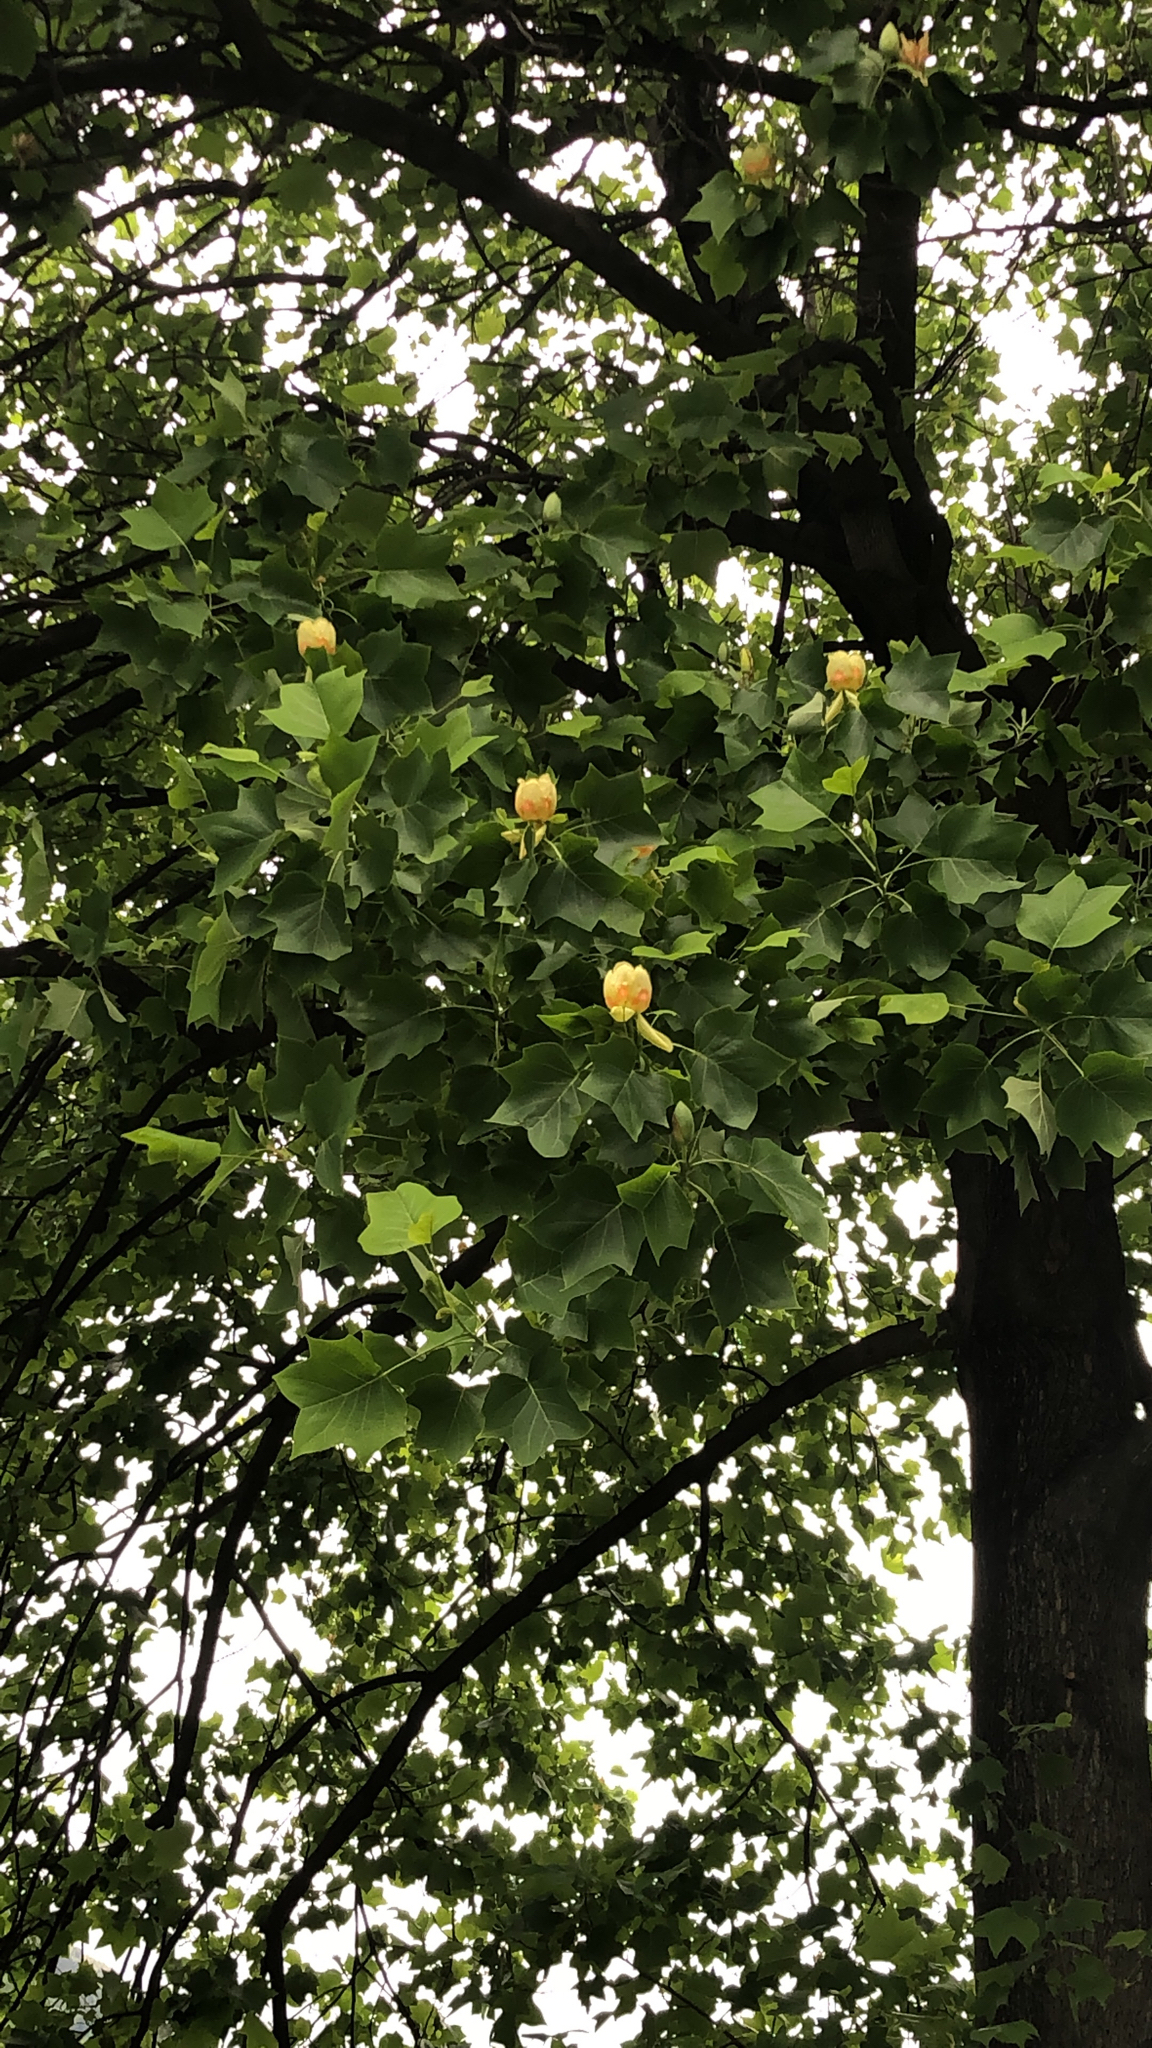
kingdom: Plantae
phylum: Tracheophyta
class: Magnoliopsida
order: Magnoliales
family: Magnoliaceae
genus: Liriodendron
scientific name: Liriodendron tulipifera
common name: Tulip tree
